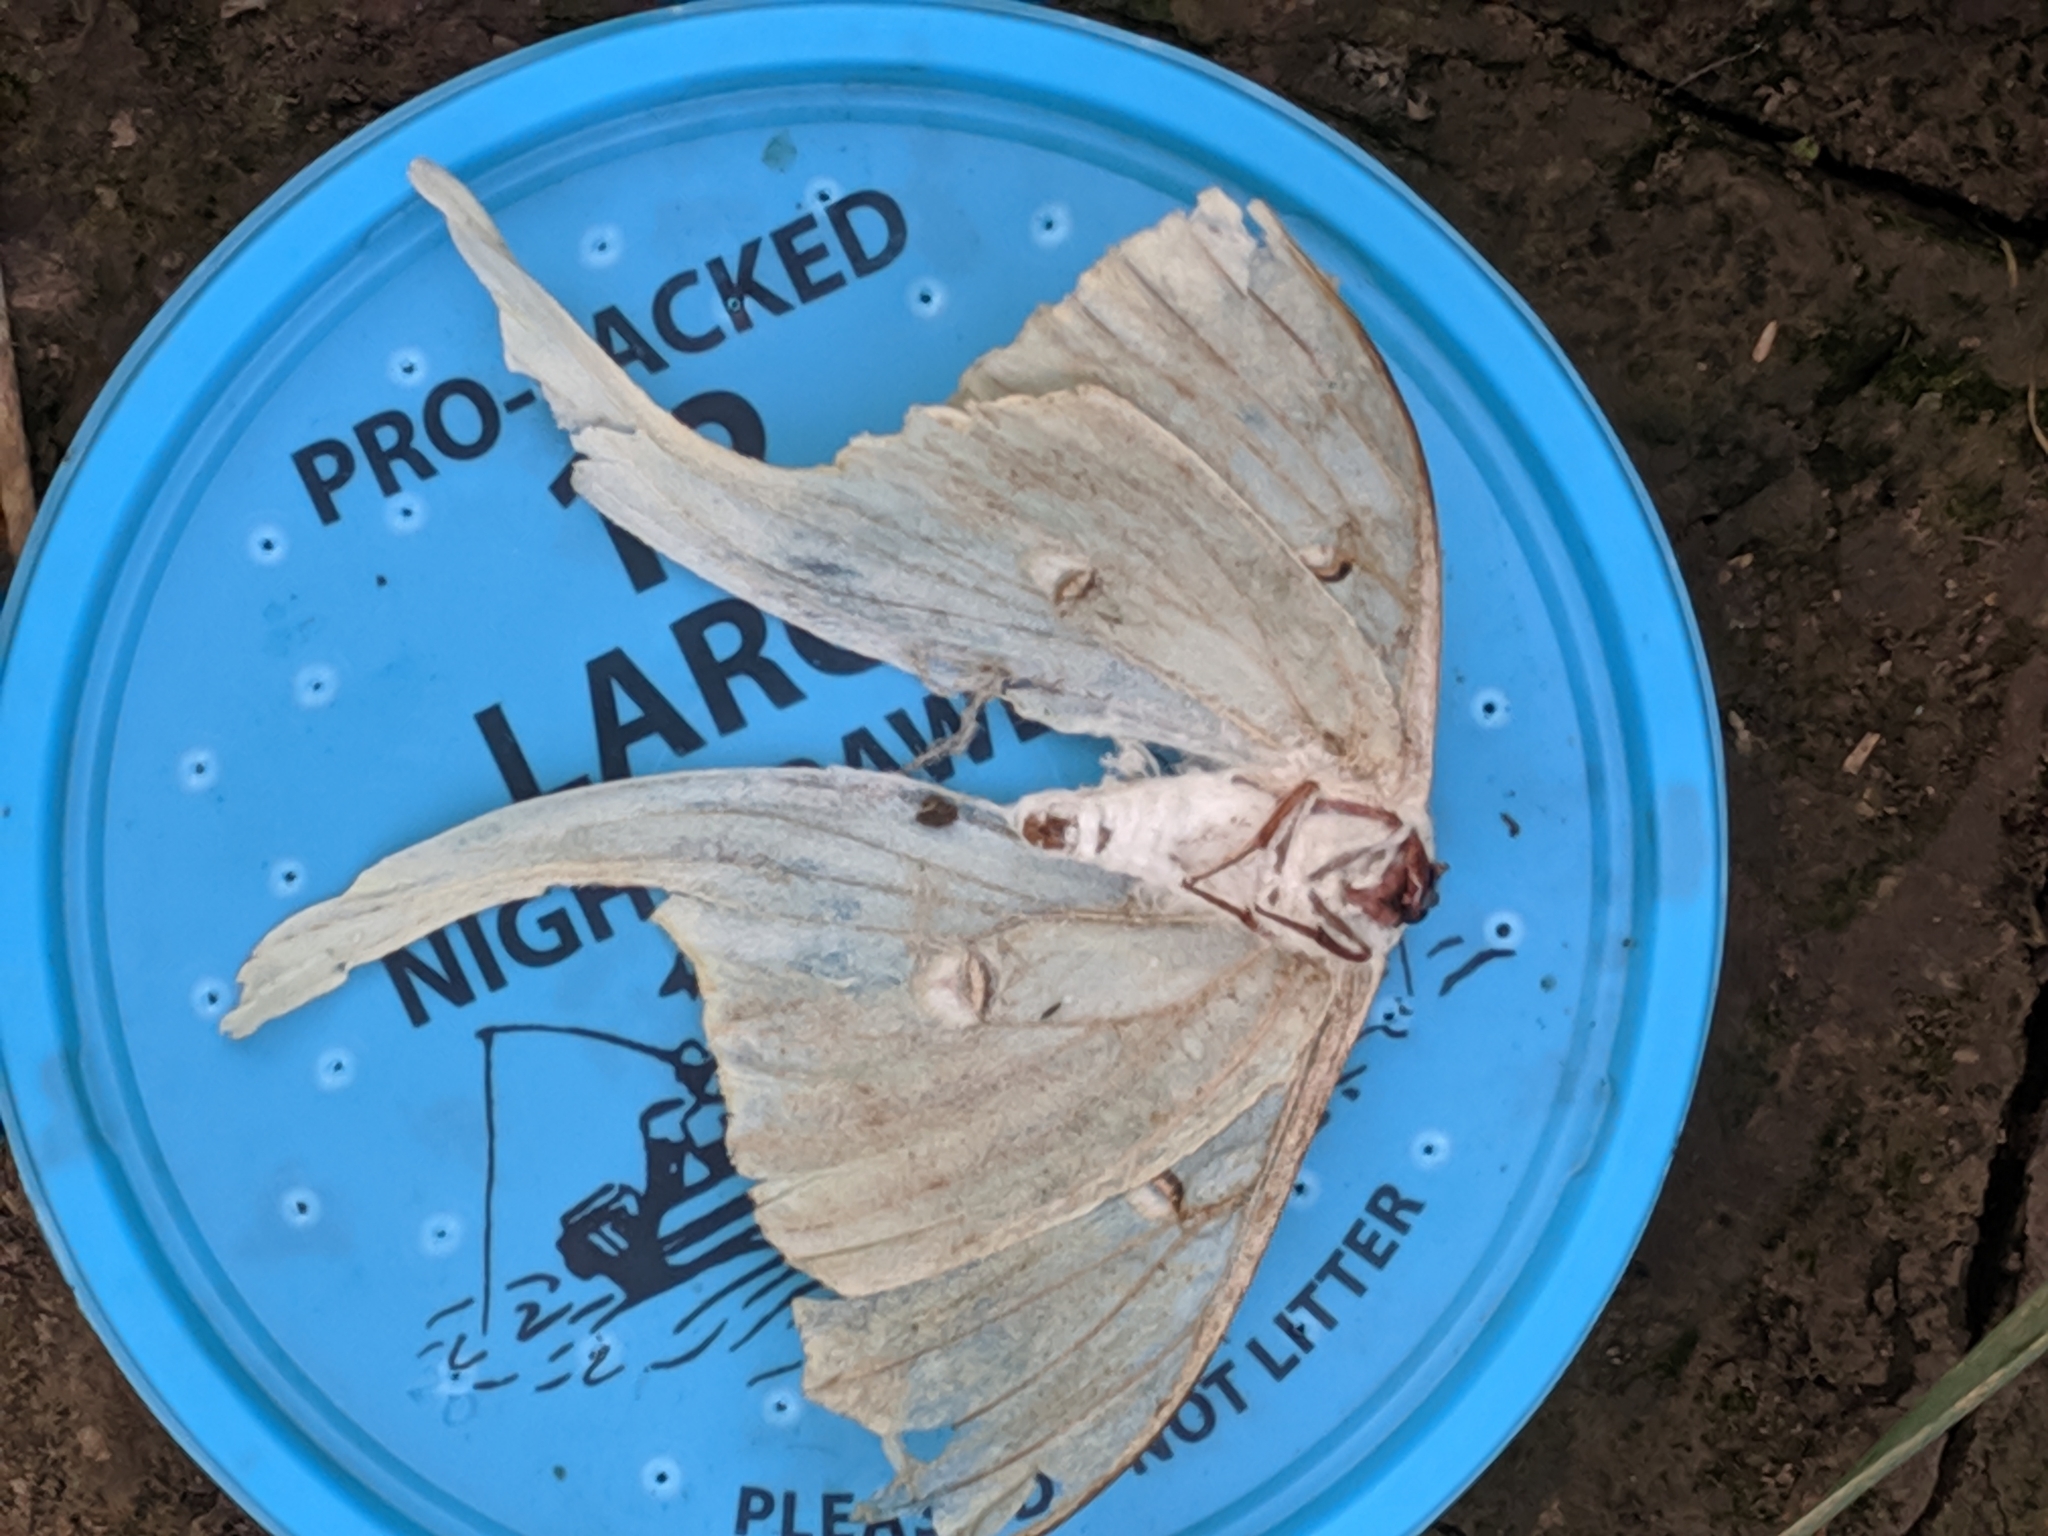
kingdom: Animalia
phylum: Arthropoda
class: Insecta
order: Lepidoptera
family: Saturniidae
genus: Actias
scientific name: Actias luna
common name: Luna moth
